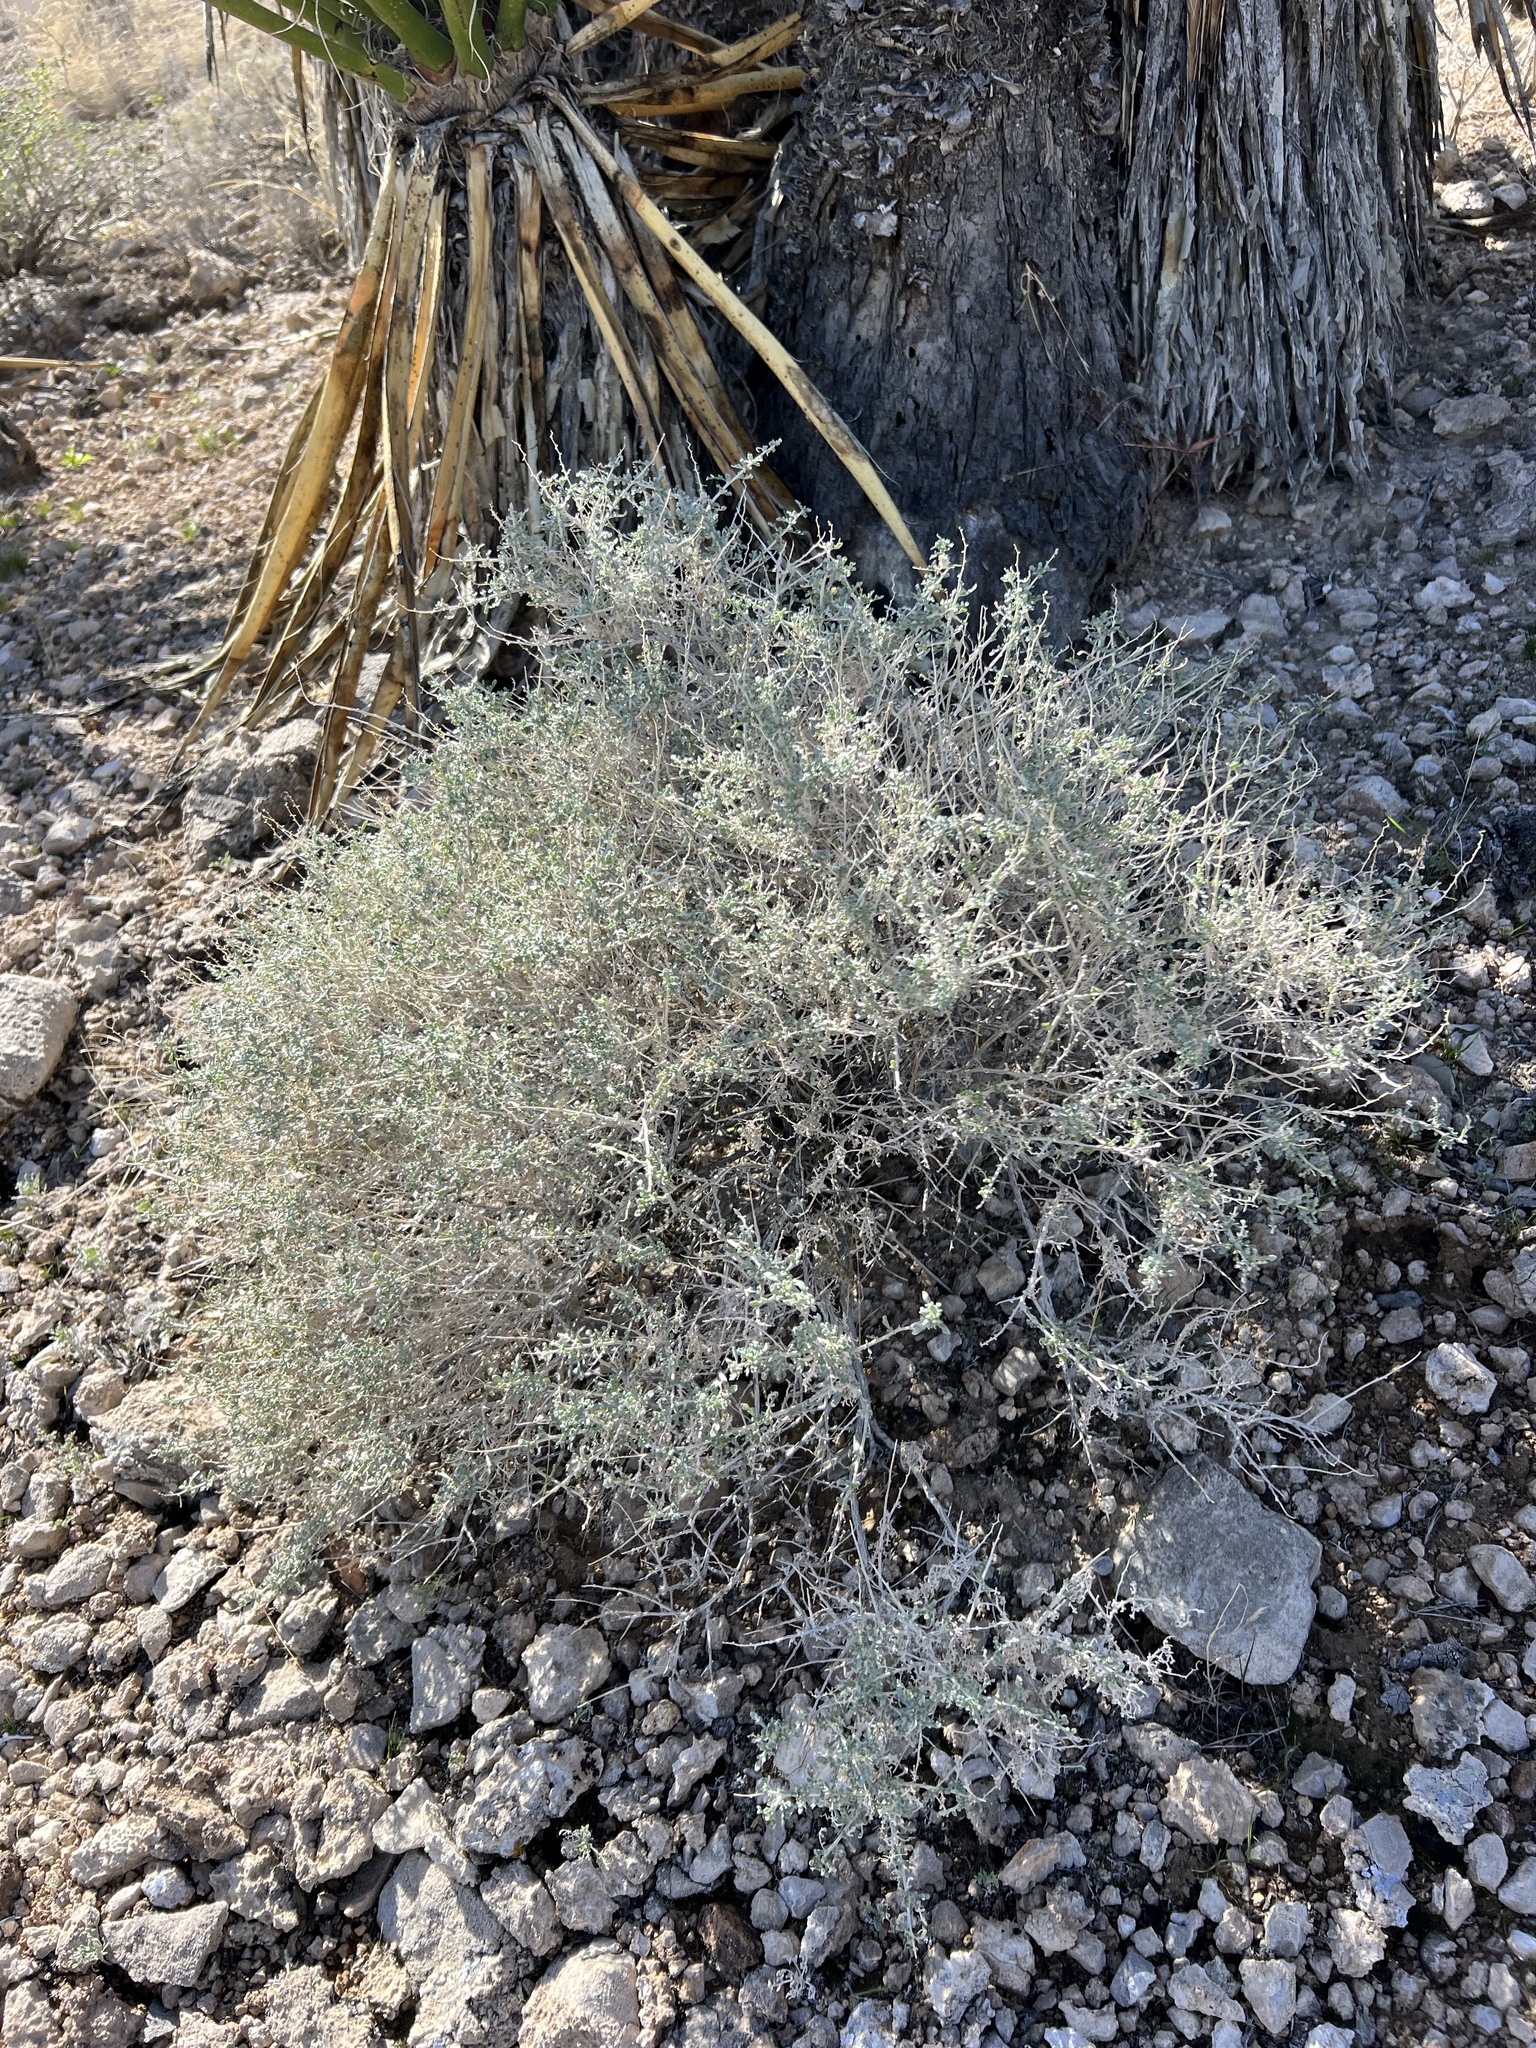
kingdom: Plantae
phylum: Tracheophyta
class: Magnoliopsida
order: Asterales
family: Asteraceae
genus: Ambrosia
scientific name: Ambrosia dumosa
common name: Bur-sage
